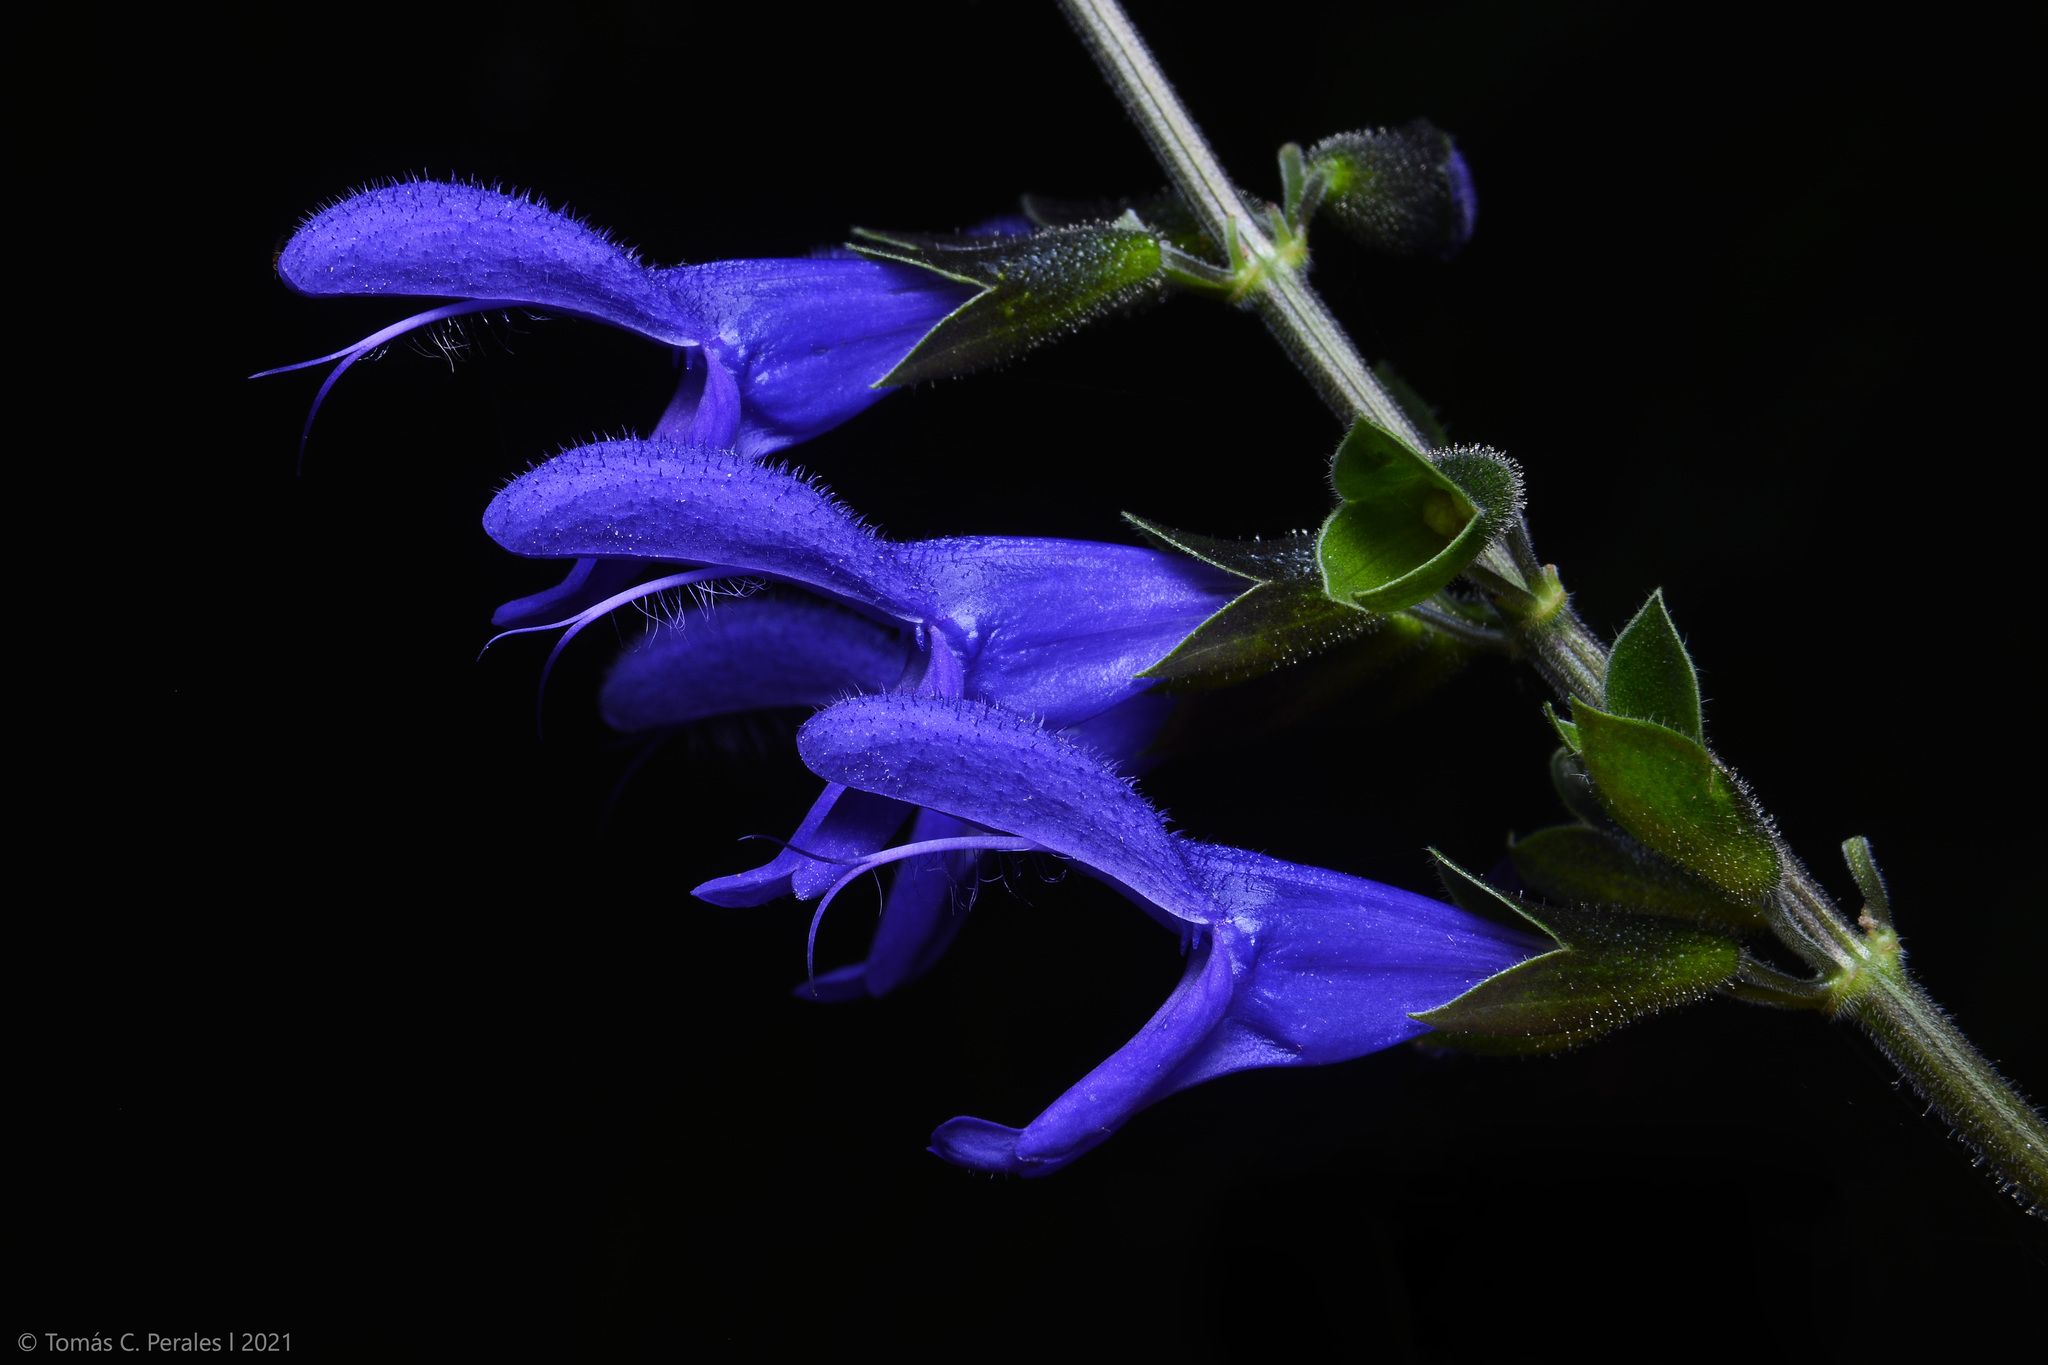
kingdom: Plantae
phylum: Tracheophyta
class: Magnoliopsida
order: Lamiales
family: Lamiaceae
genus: Salvia
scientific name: Salvia guaranitica
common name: Anise-scented sage
